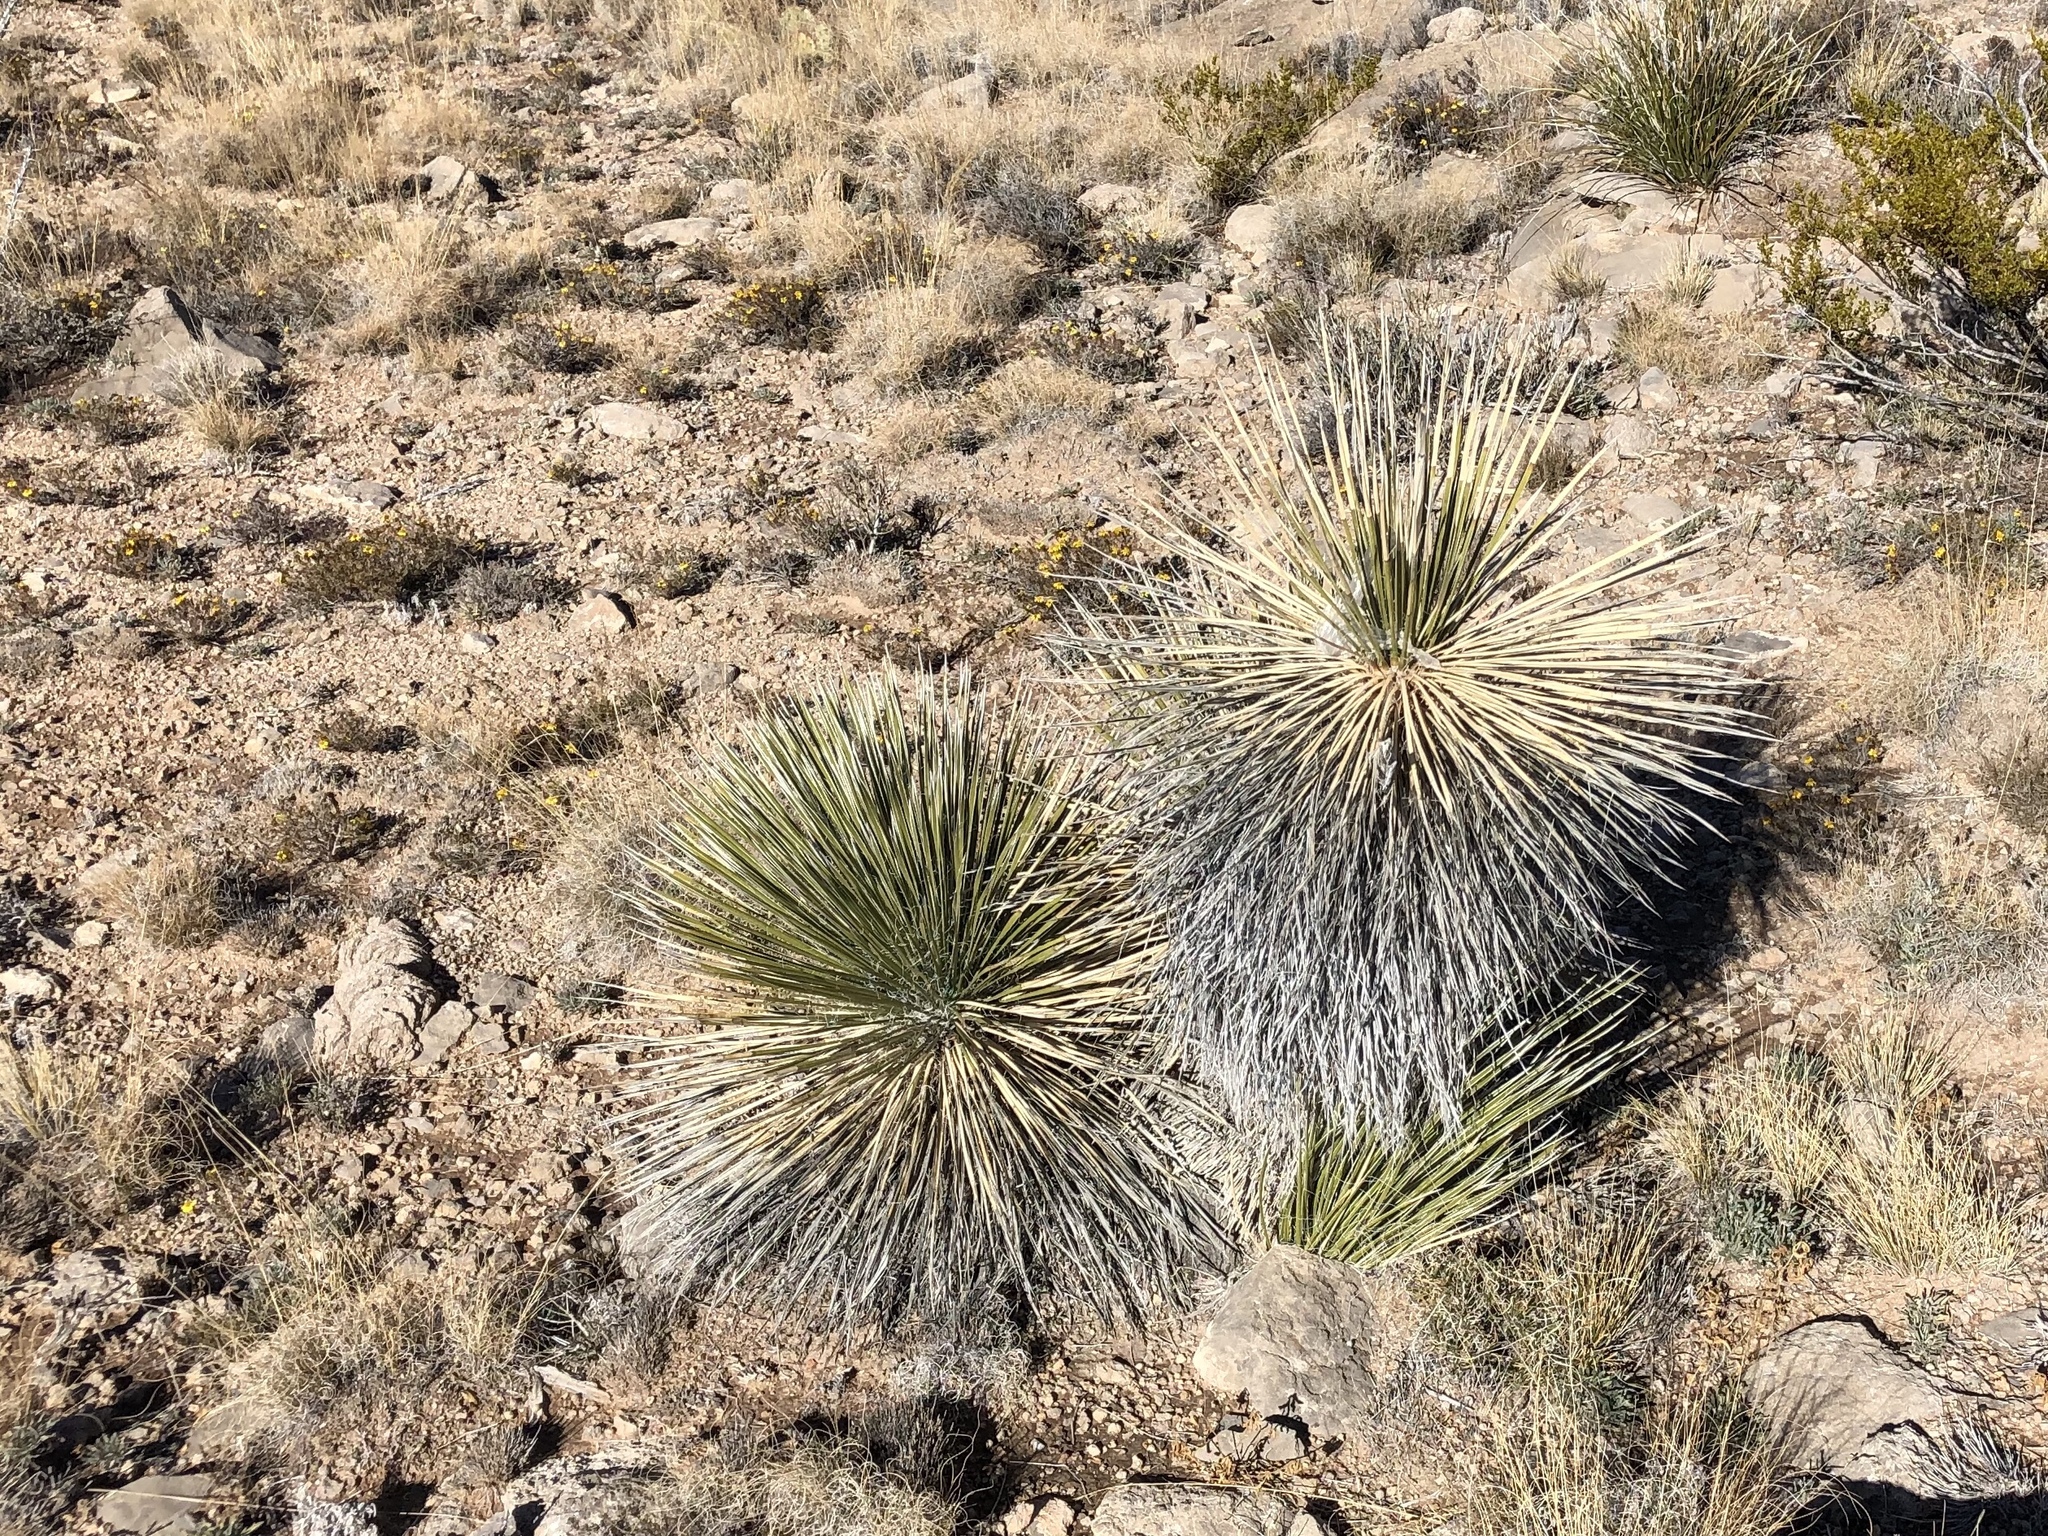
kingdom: Plantae
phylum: Tracheophyta
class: Liliopsida
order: Asparagales
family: Asparagaceae
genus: Yucca
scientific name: Yucca elata
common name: Palmella
